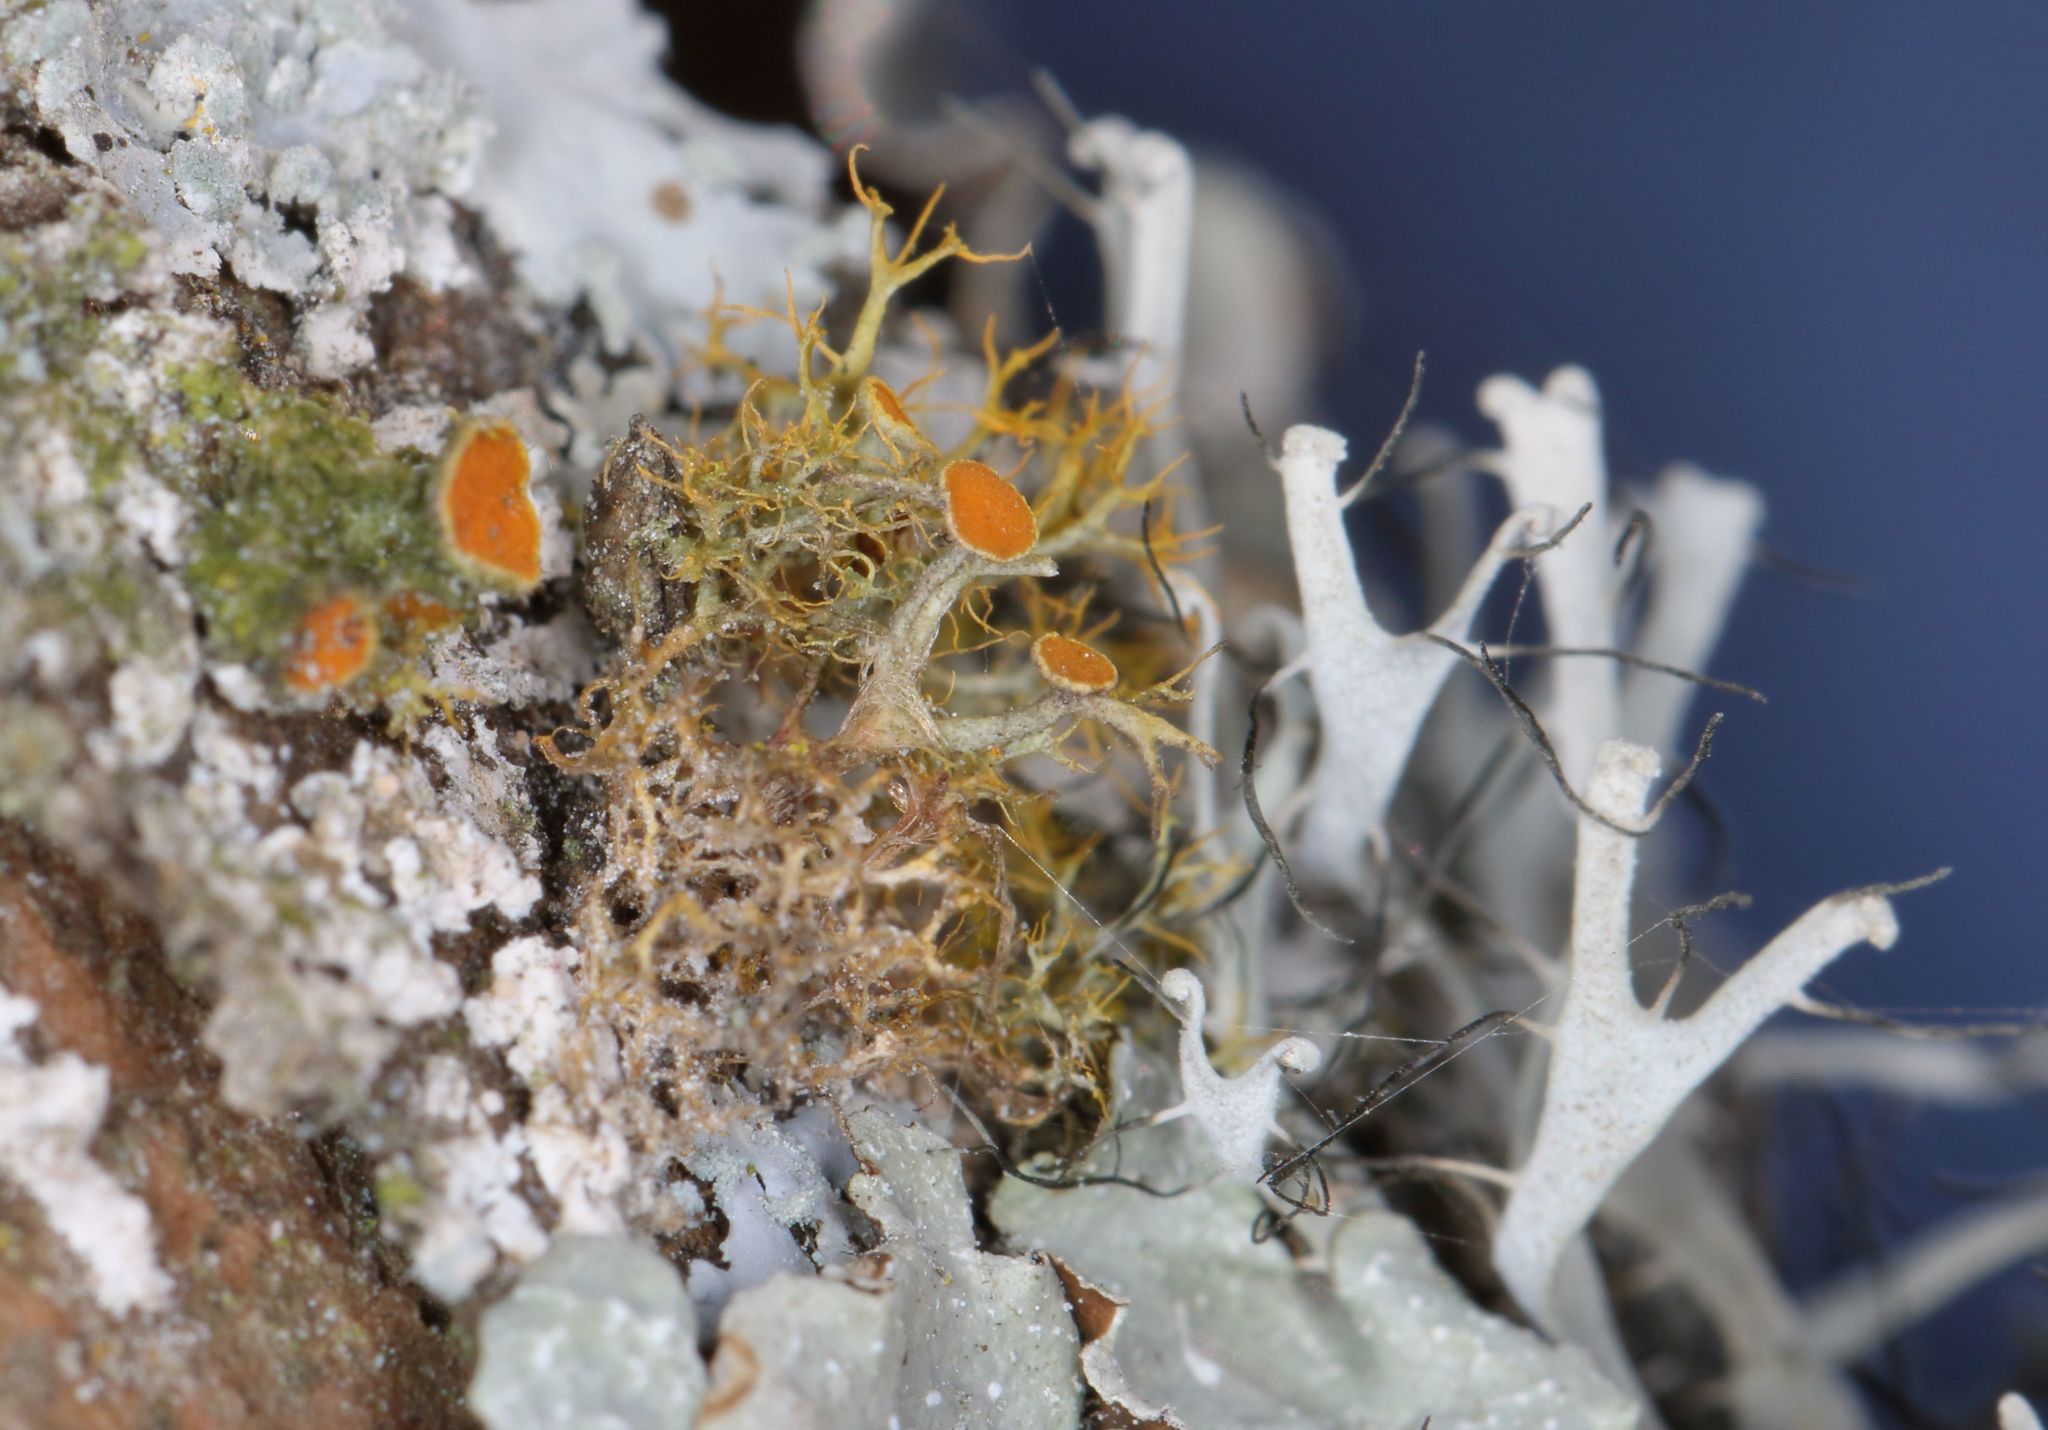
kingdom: Fungi
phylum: Ascomycota
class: Lecanoromycetes
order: Teloschistales
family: Teloschistaceae
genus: Teloschistes
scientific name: Teloschistes exilis
